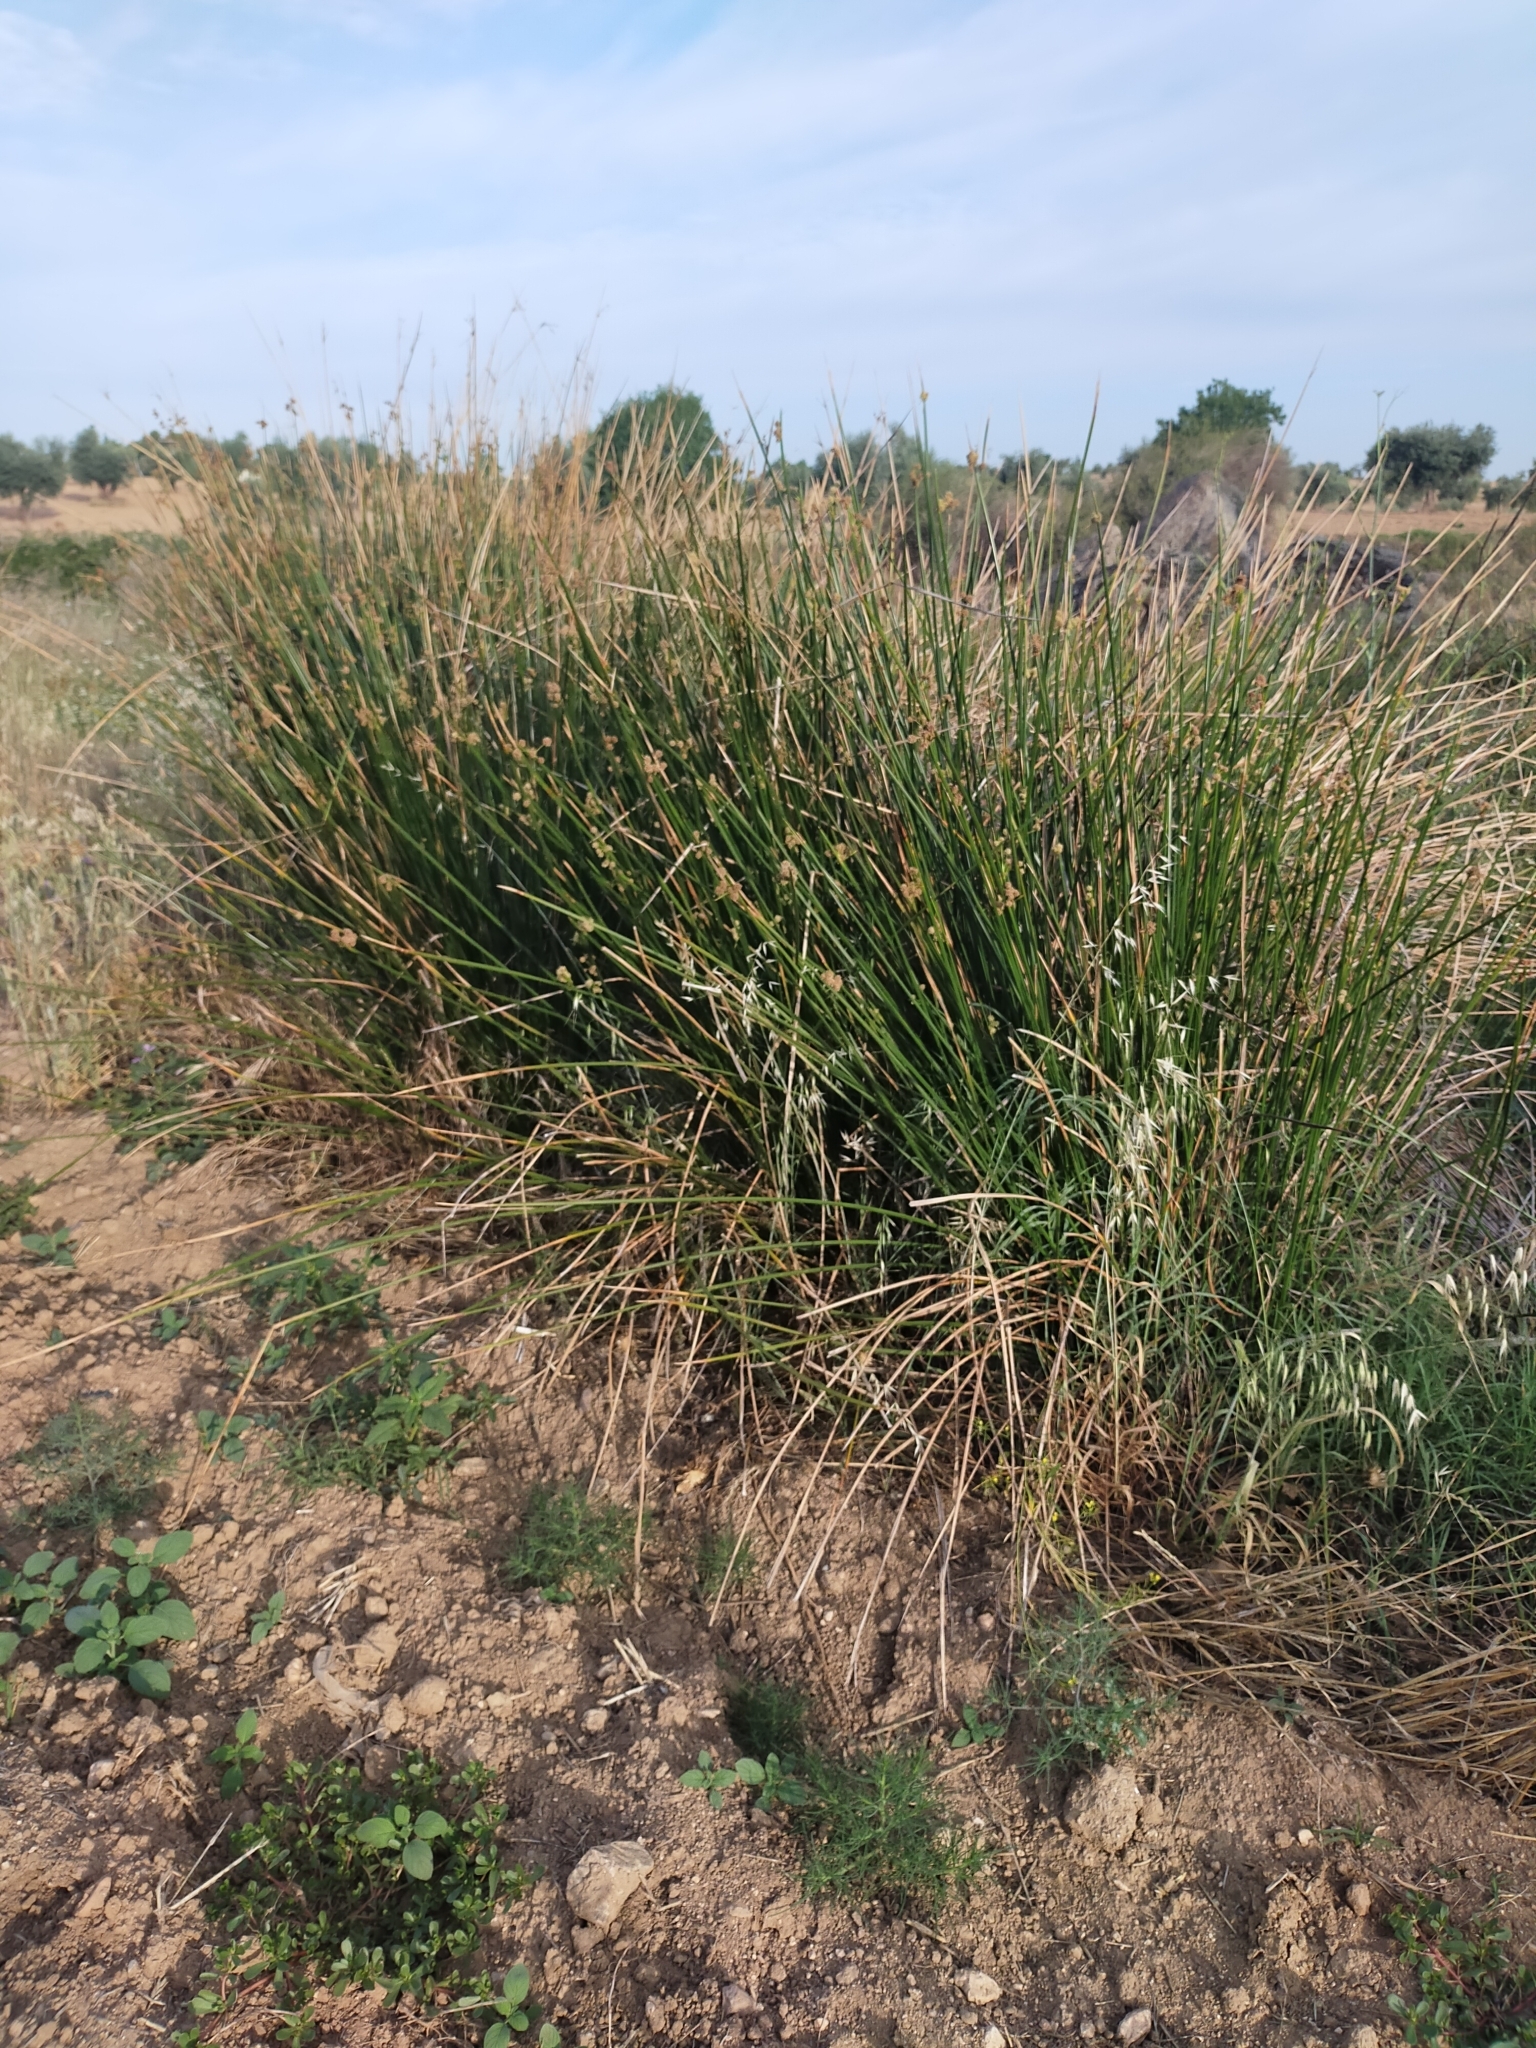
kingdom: Plantae
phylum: Tracheophyta
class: Liliopsida
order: Poales
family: Cyperaceae
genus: Scirpoides
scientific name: Scirpoides holoschoenus
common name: Round-headed club-rush
